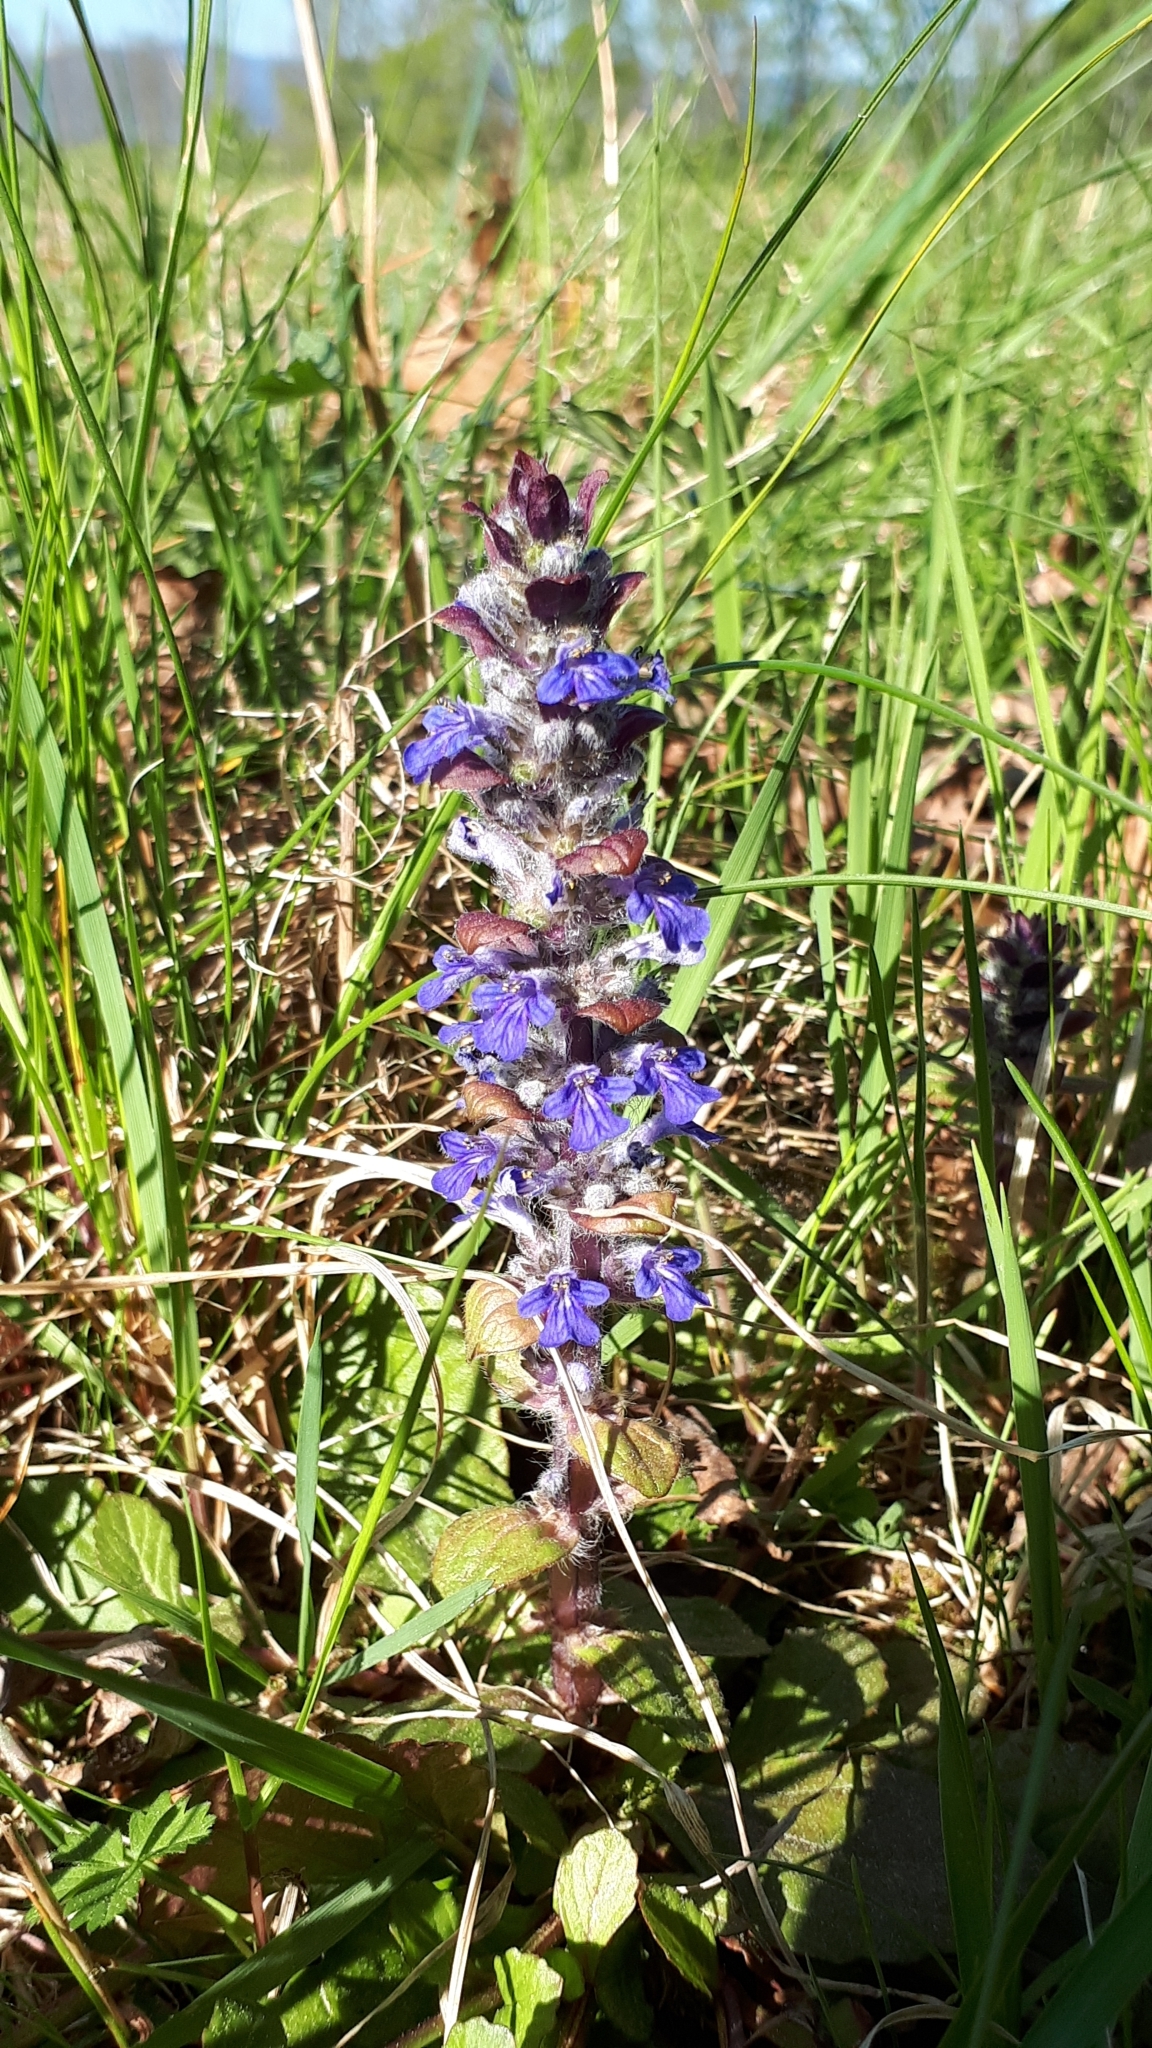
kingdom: Plantae
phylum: Tracheophyta
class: Magnoliopsida
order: Lamiales
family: Lamiaceae
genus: Ajuga
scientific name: Ajuga reptans
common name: Bugle
